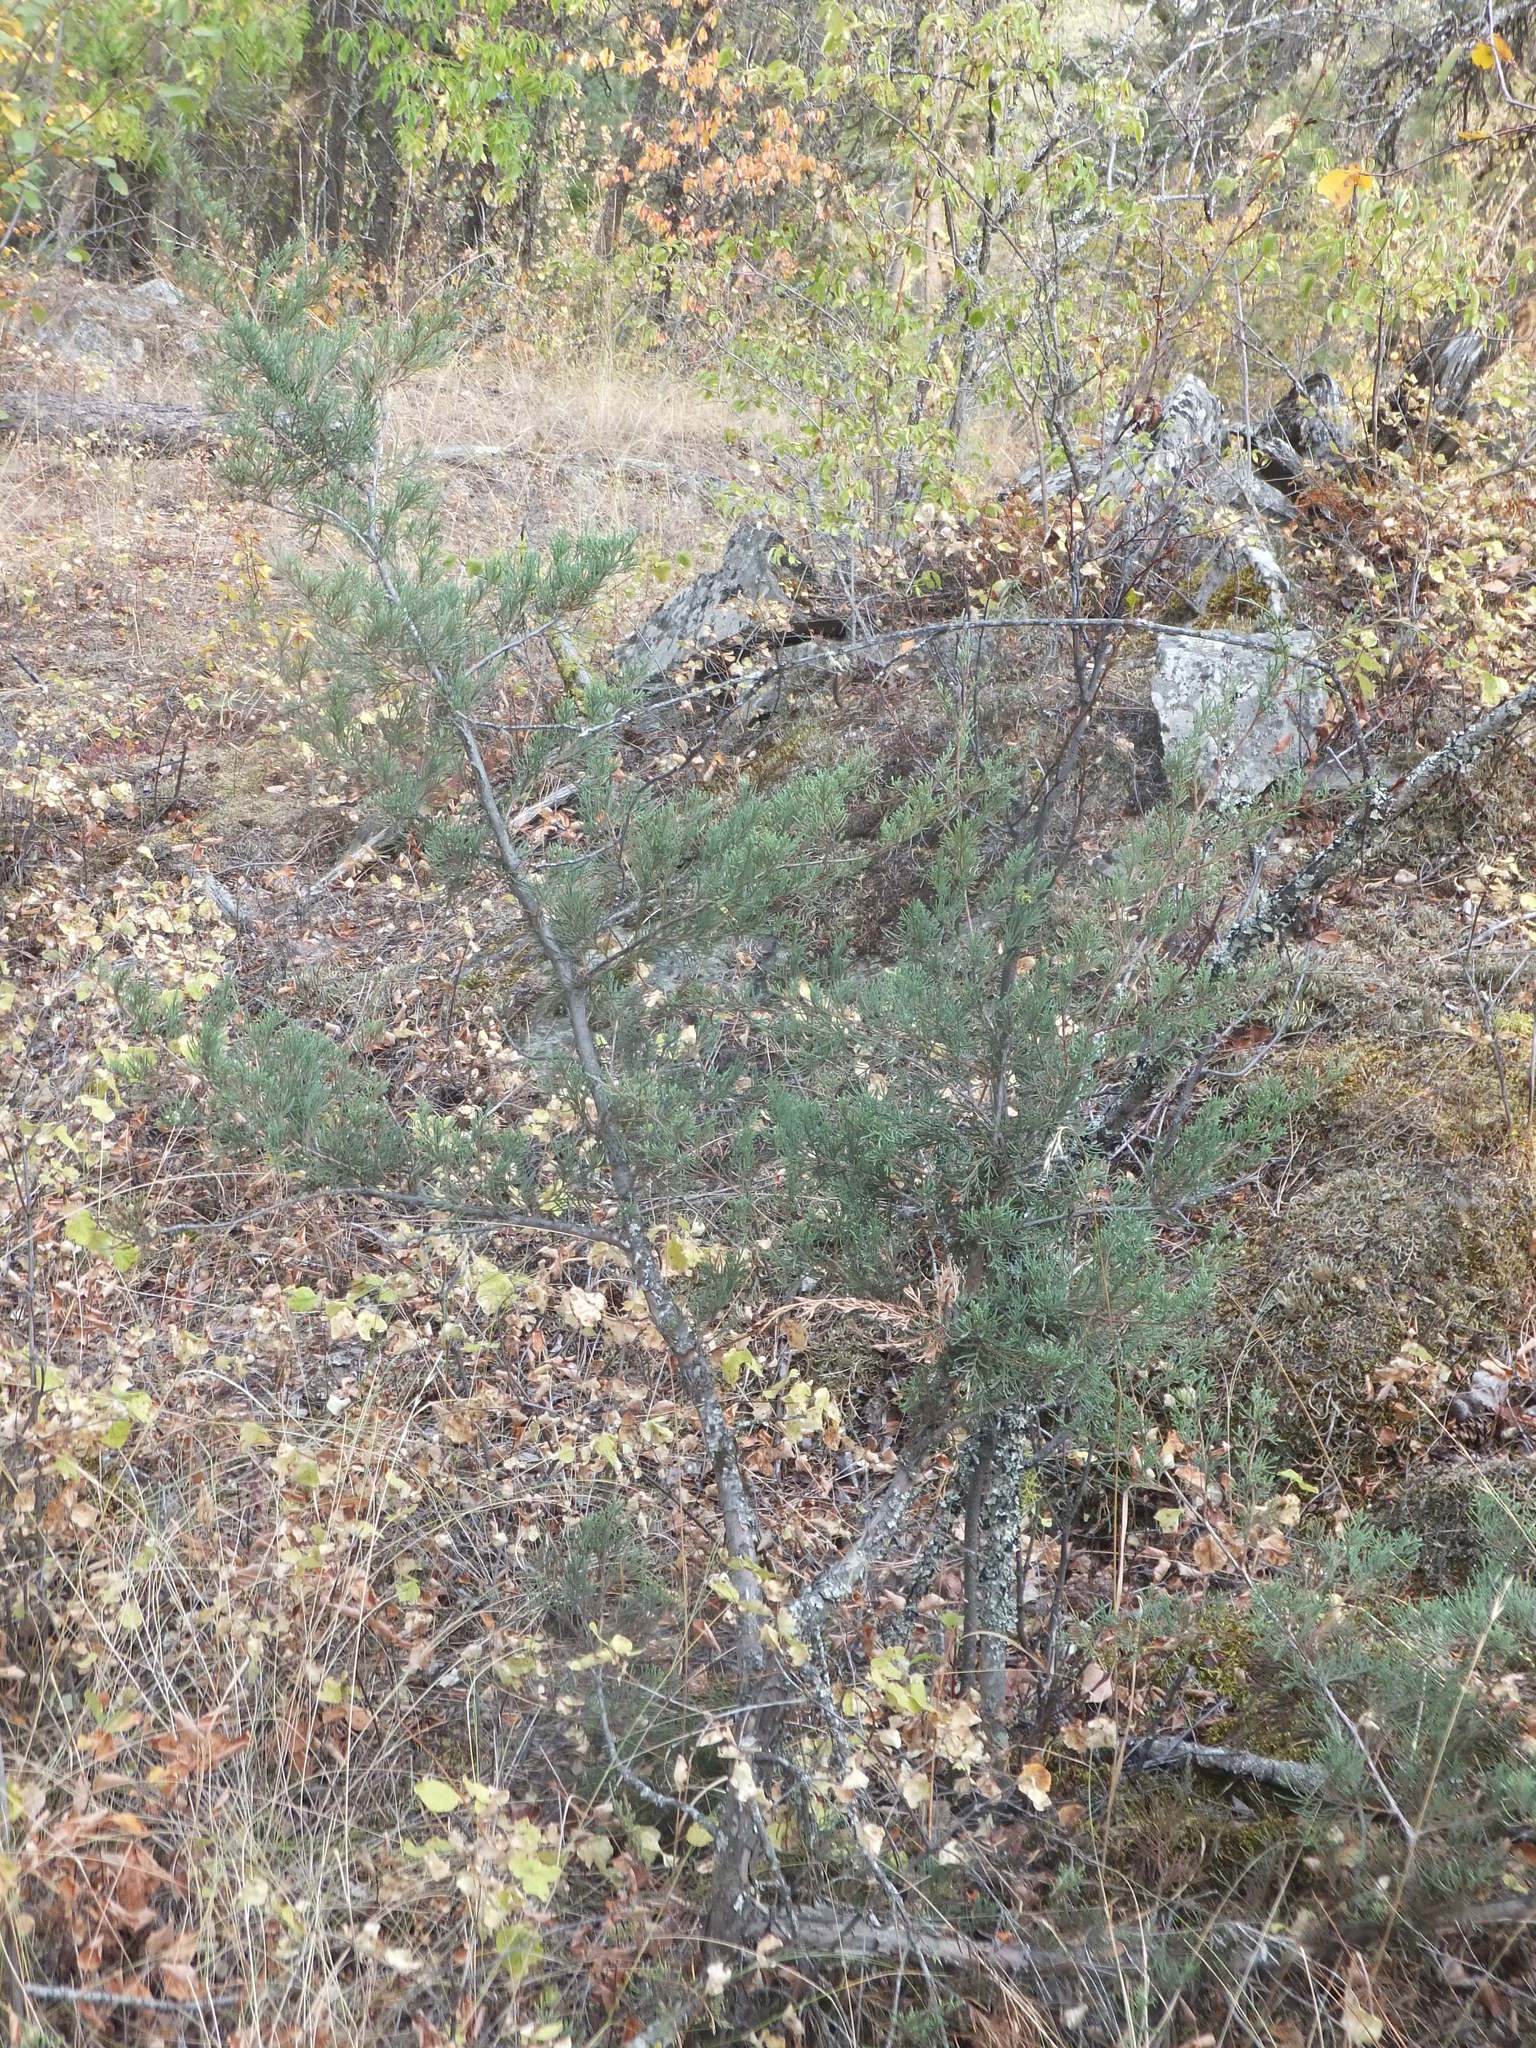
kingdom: Plantae
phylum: Tracheophyta
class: Pinopsida
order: Pinales
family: Cupressaceae
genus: Juniperus
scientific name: Juniperus scopulorum
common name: Rocky mountain juniper
